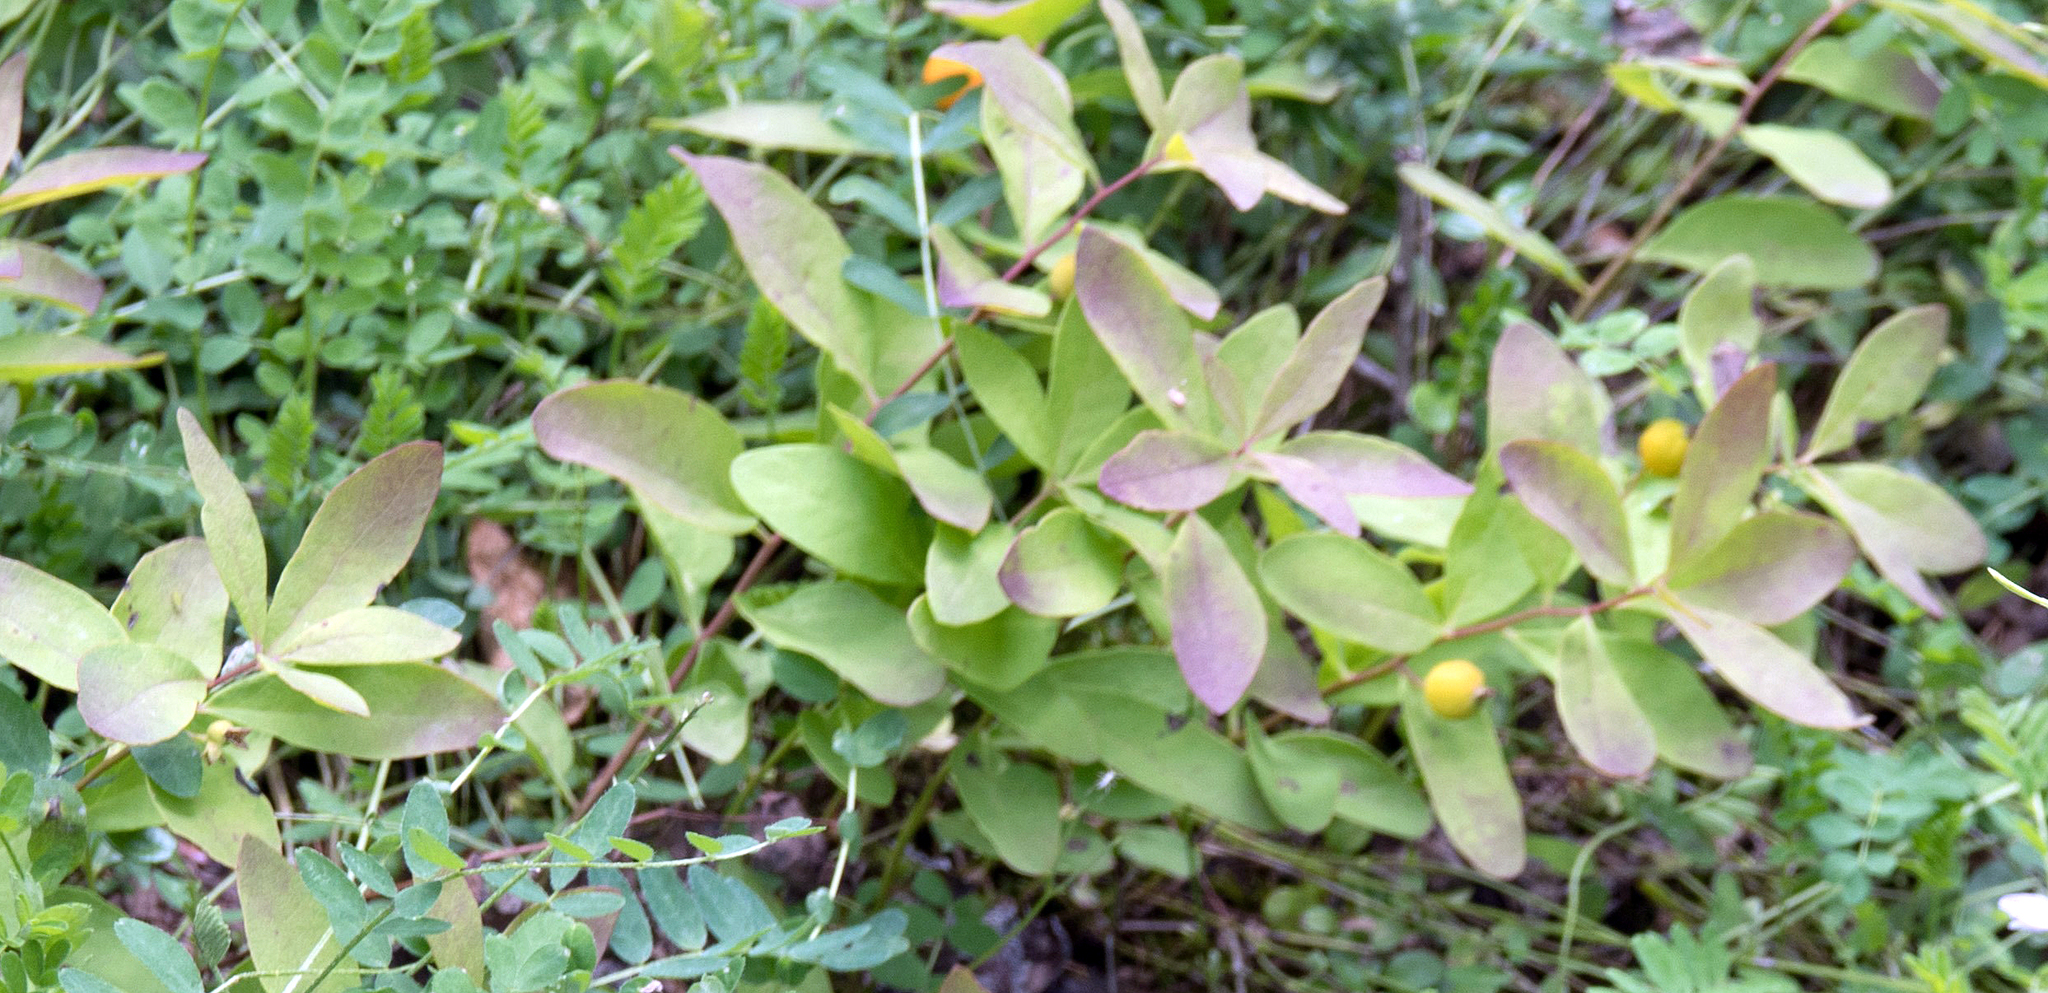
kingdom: Plantae
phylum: Tracheophyta
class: Magnoliopsida
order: Santalales
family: Comandraceae
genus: Geocaulon
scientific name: Geocaulon lividum
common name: Earthberry
